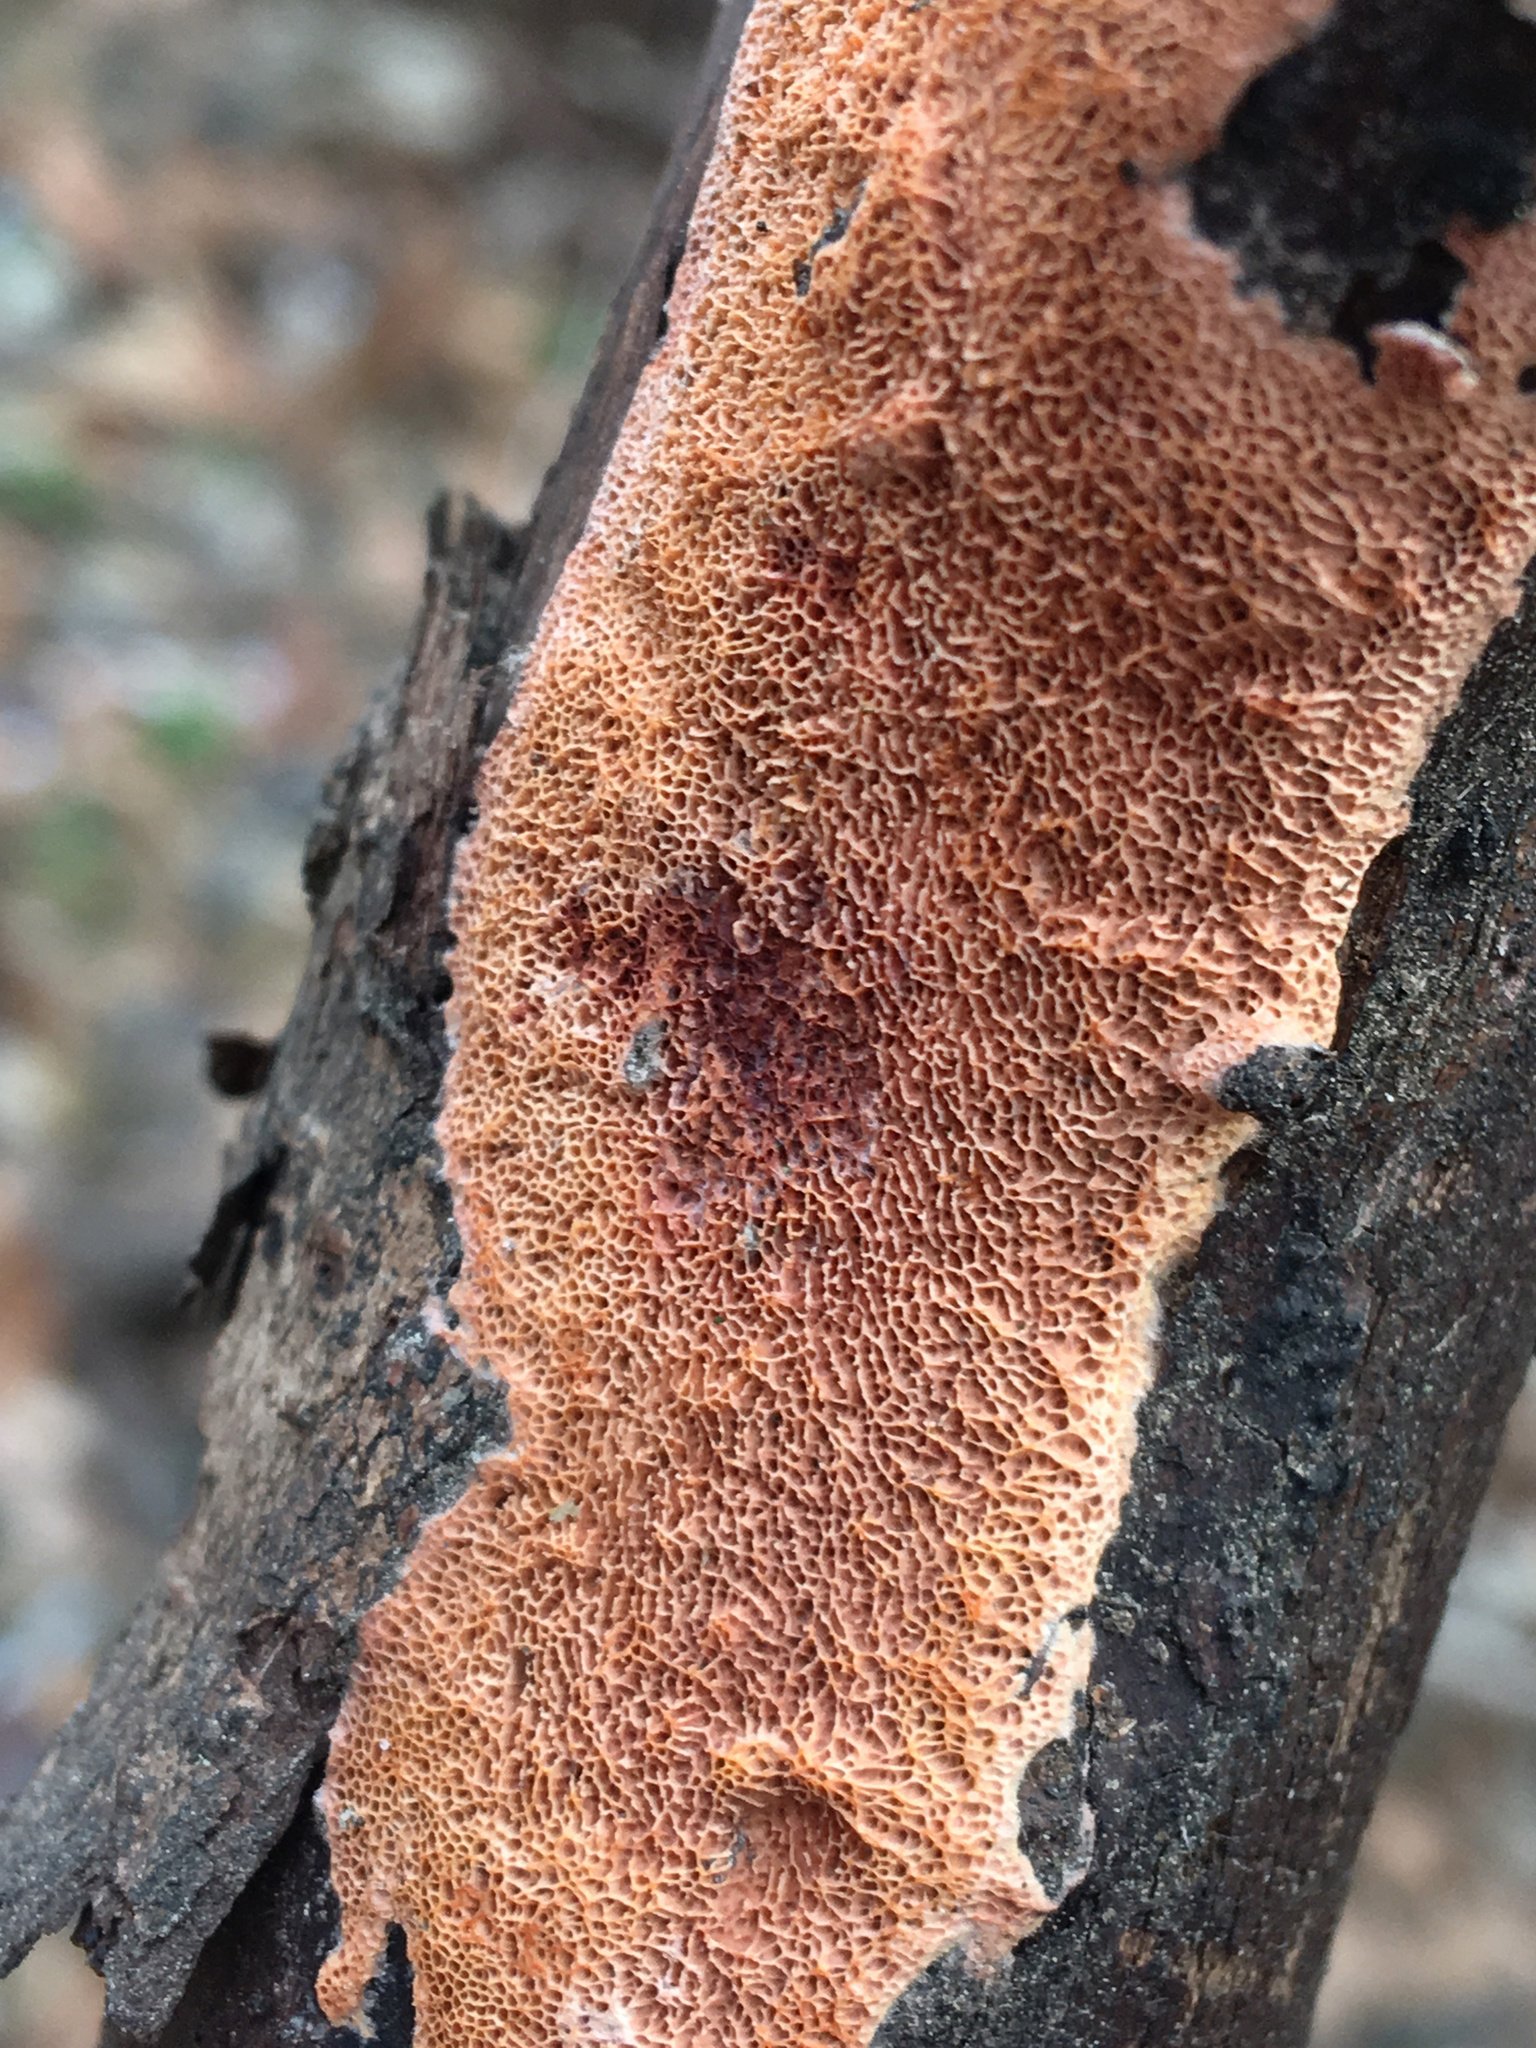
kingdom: Fungi
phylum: Basidiomycota
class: Agaricomycetes
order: Polyporales
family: Irpicaceae
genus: Ceriporia
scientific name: Ceriporia purpurea
